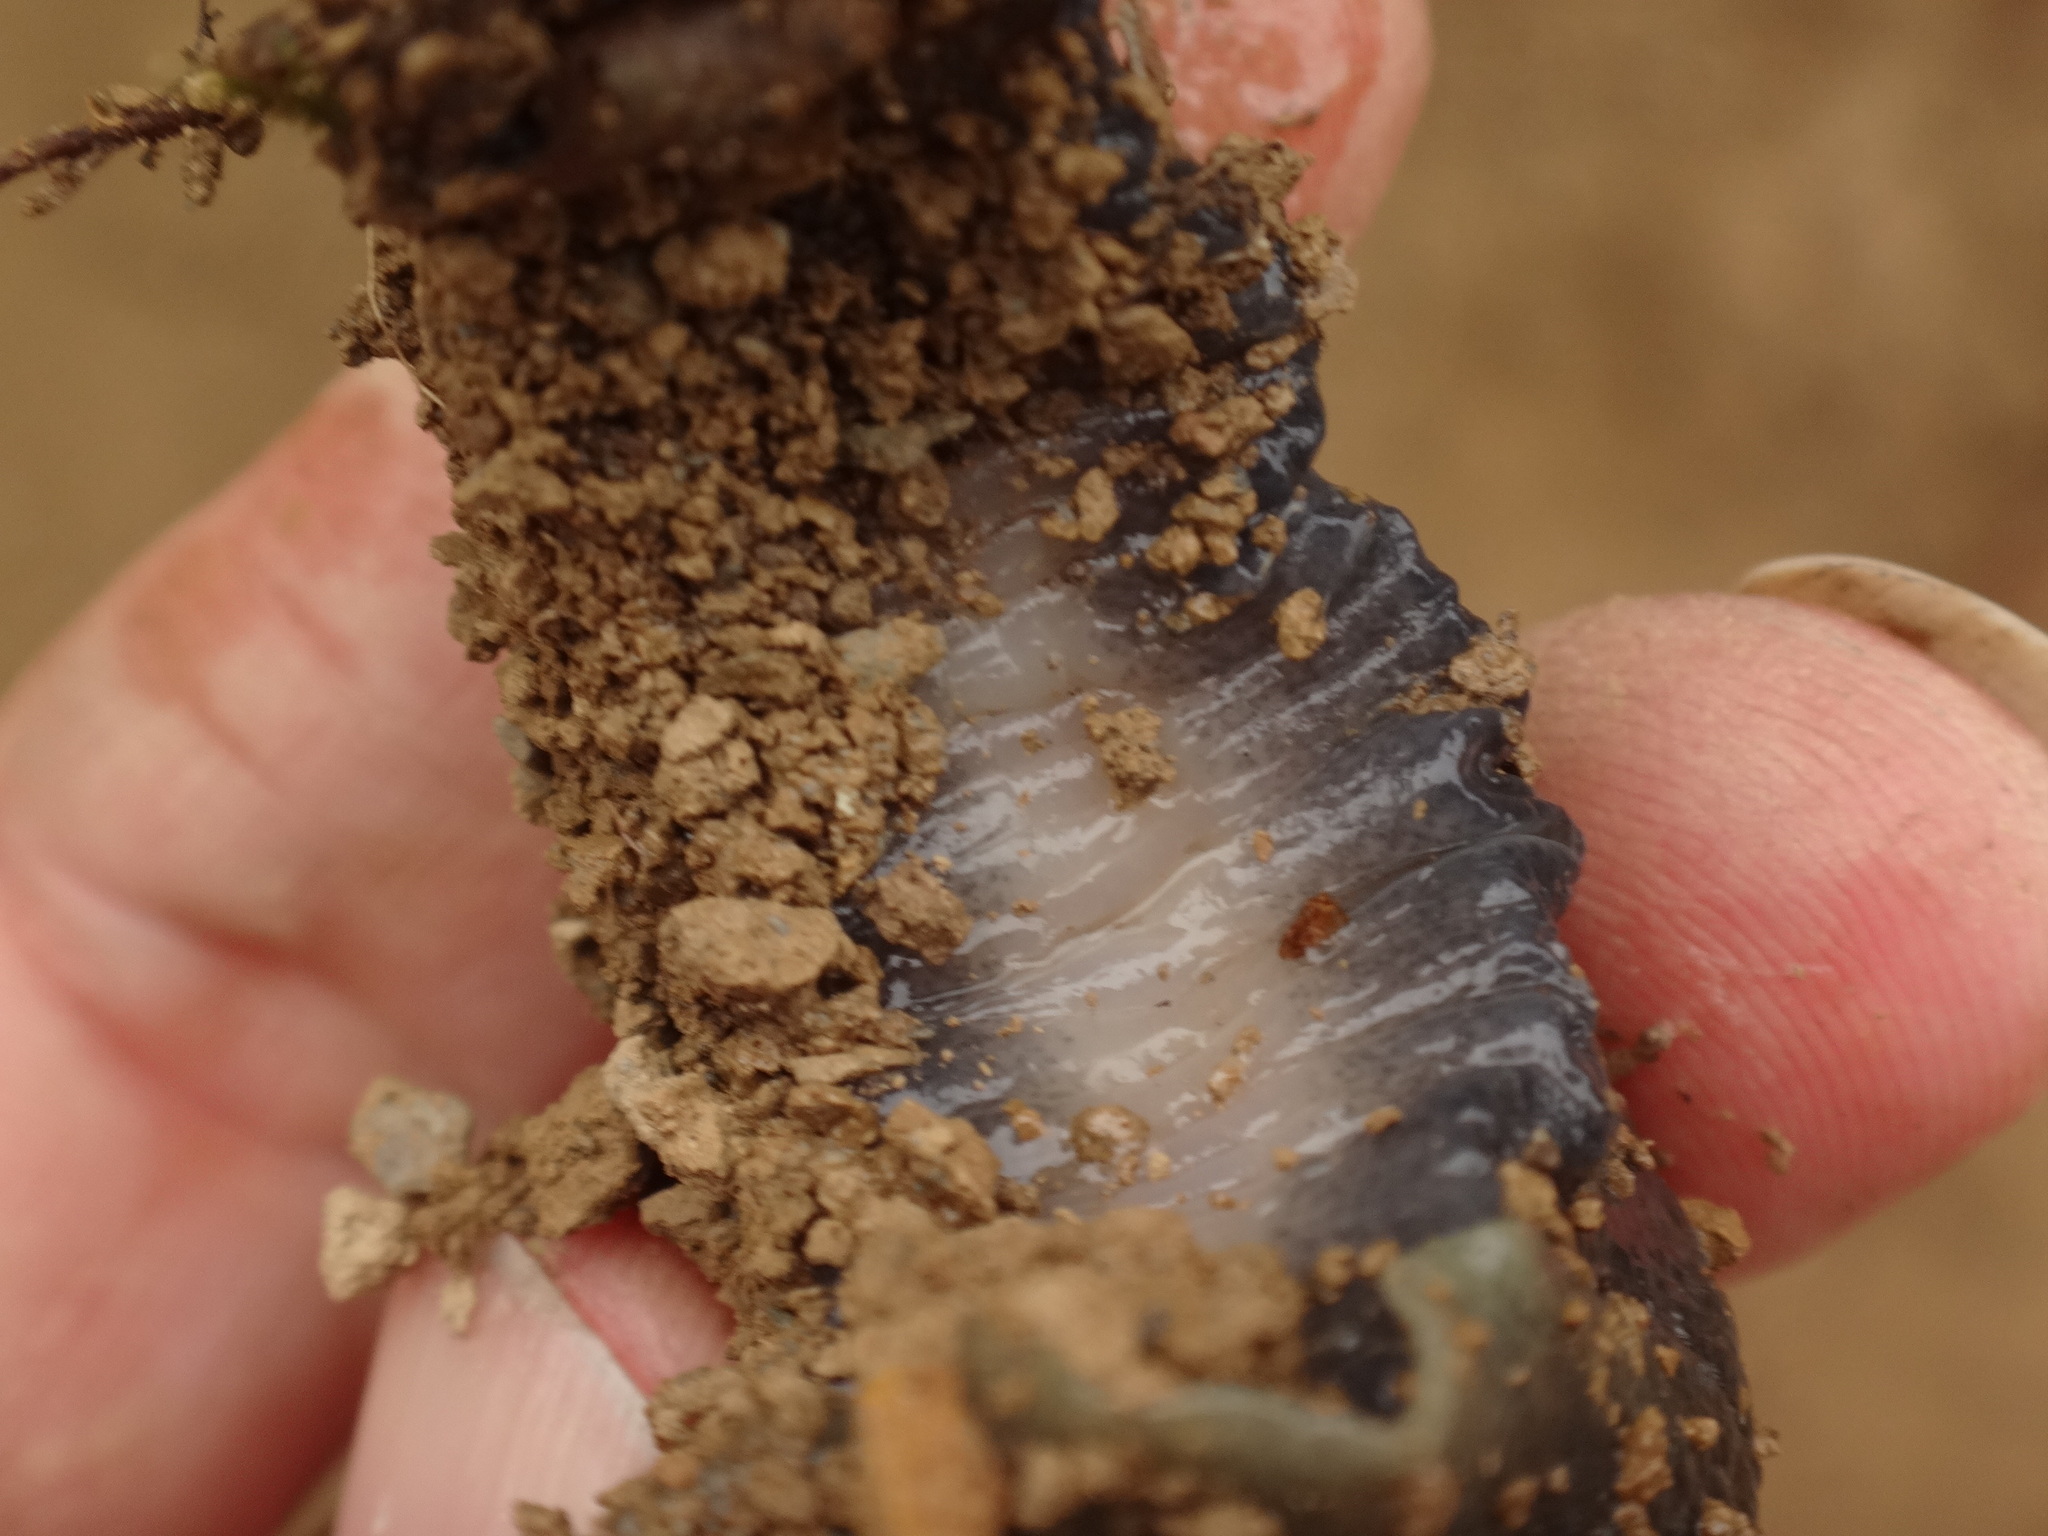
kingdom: Animalia
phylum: Mollusca
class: Gastropoda
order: Stylommatophora
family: Limacidae
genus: Limax
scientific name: Limax cinereoniger
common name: Ash-black slug
